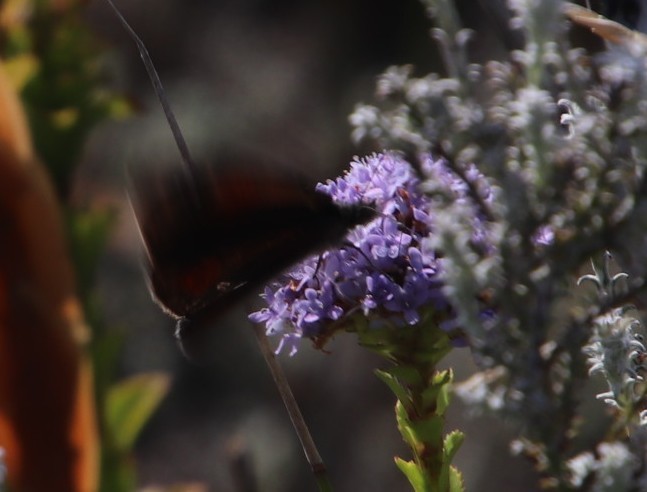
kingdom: Animalia
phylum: Arthropoda
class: Insecta
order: Lepidoptera
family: Nymphalidae
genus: Stygionympha
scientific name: Stygionympha vigilans
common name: Western hillside brown
